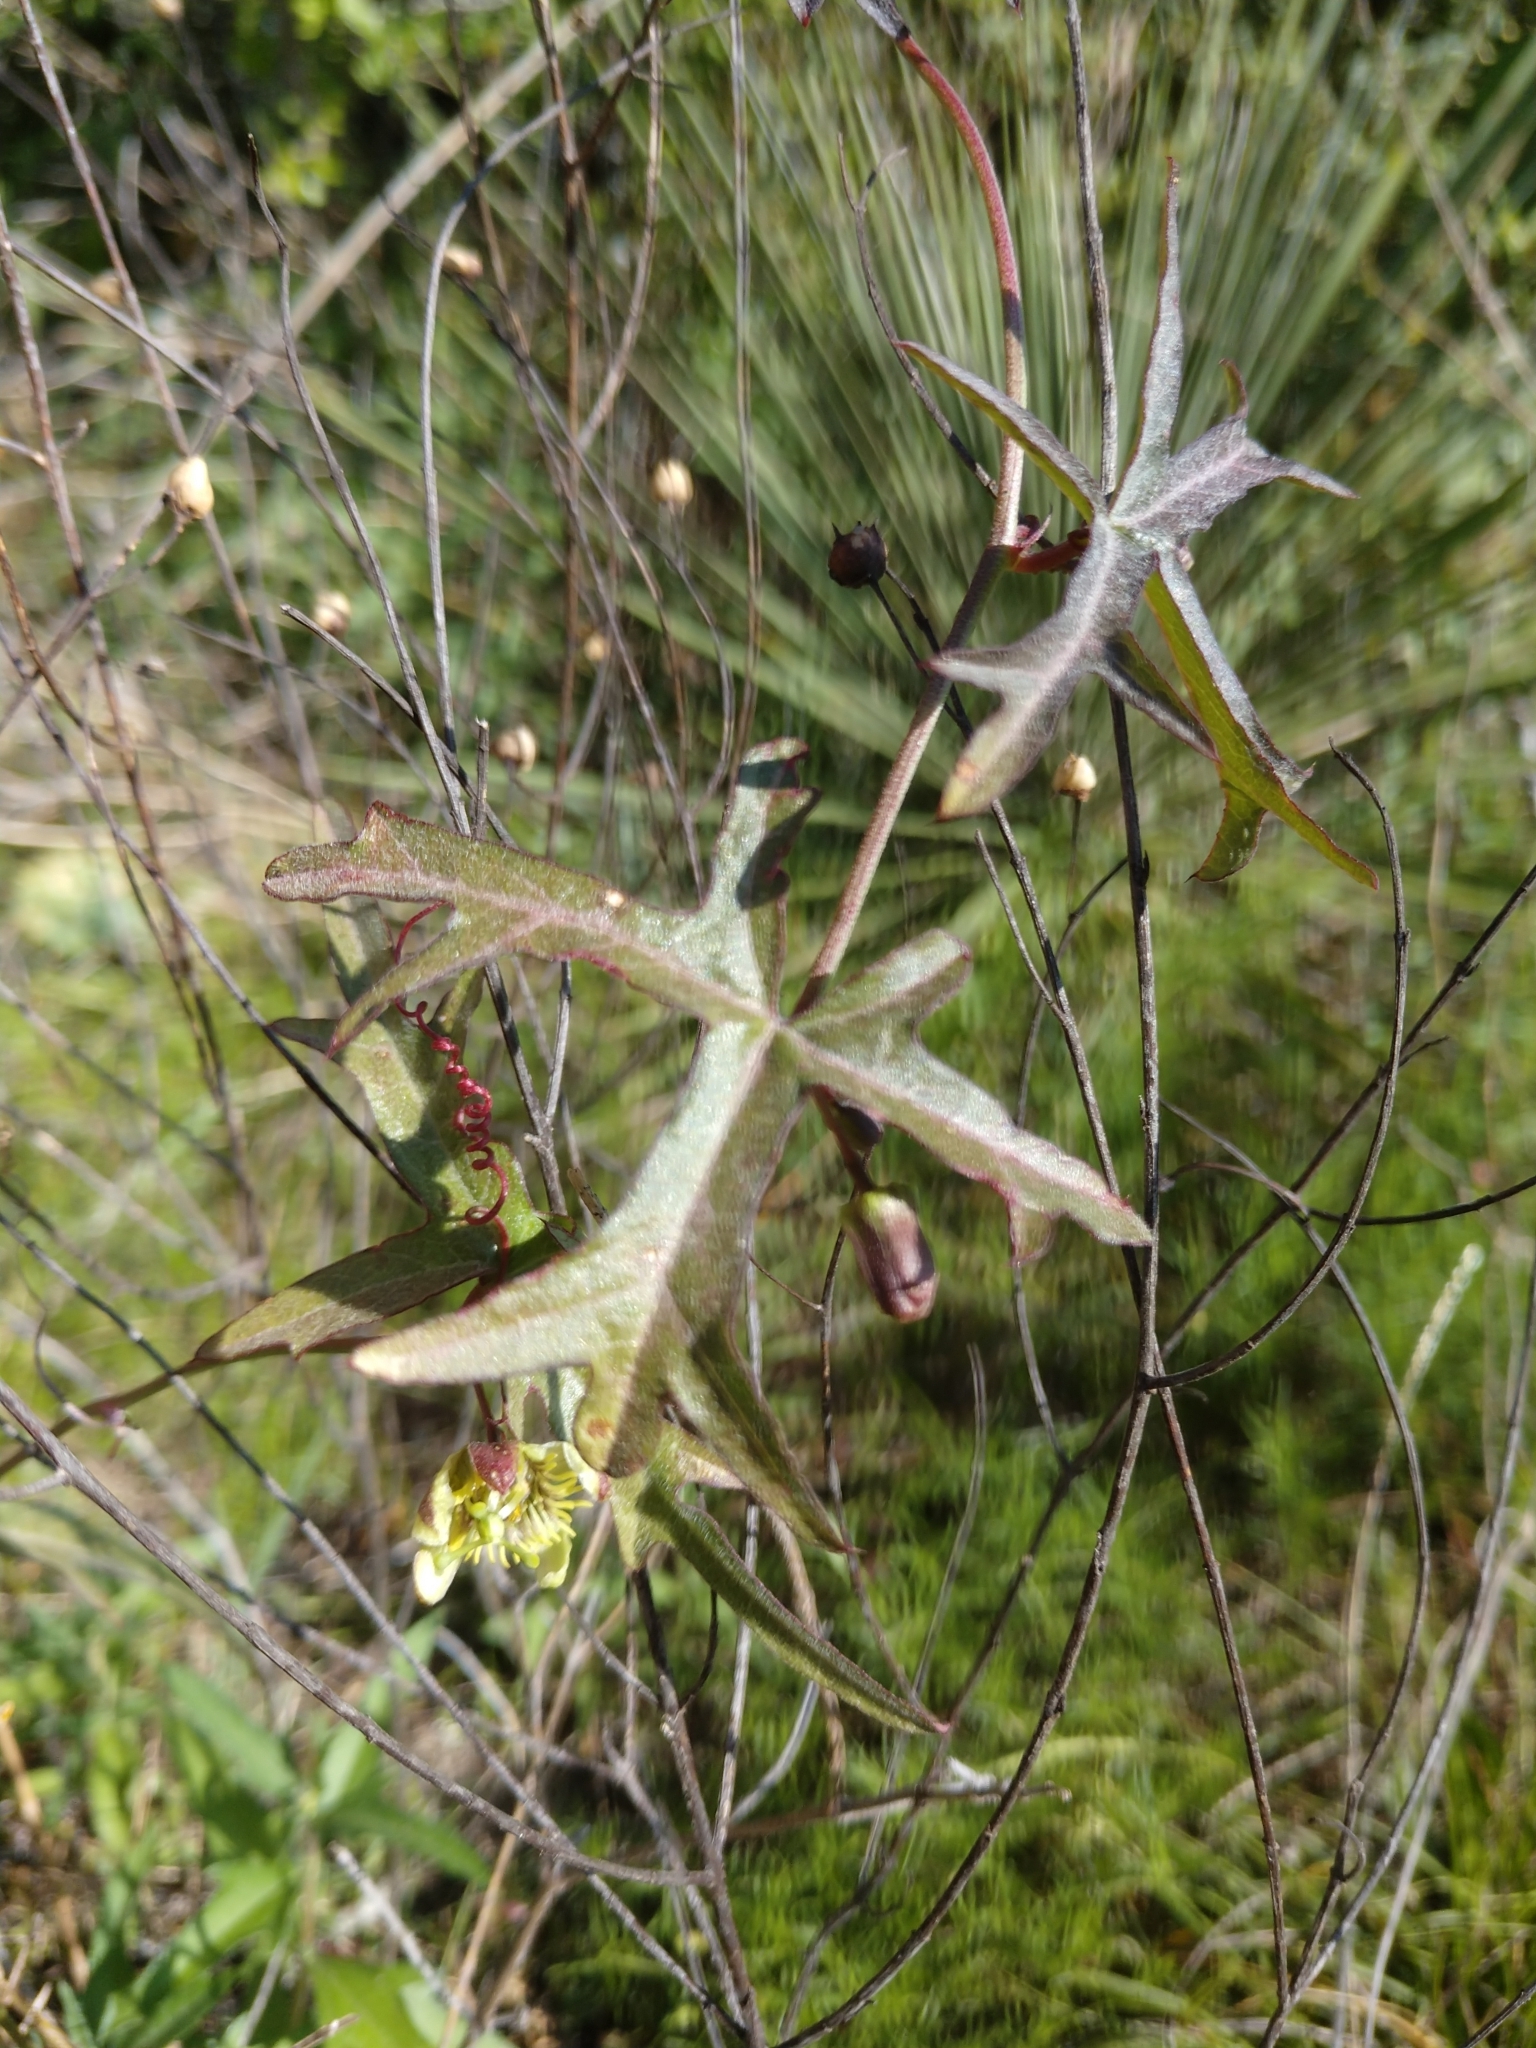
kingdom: Plantae
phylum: Tracheophyta
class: Magnoliopsida
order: Malpighiales
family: Passifloraceae
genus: Passiflora
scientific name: Passiflora tenuiloba
